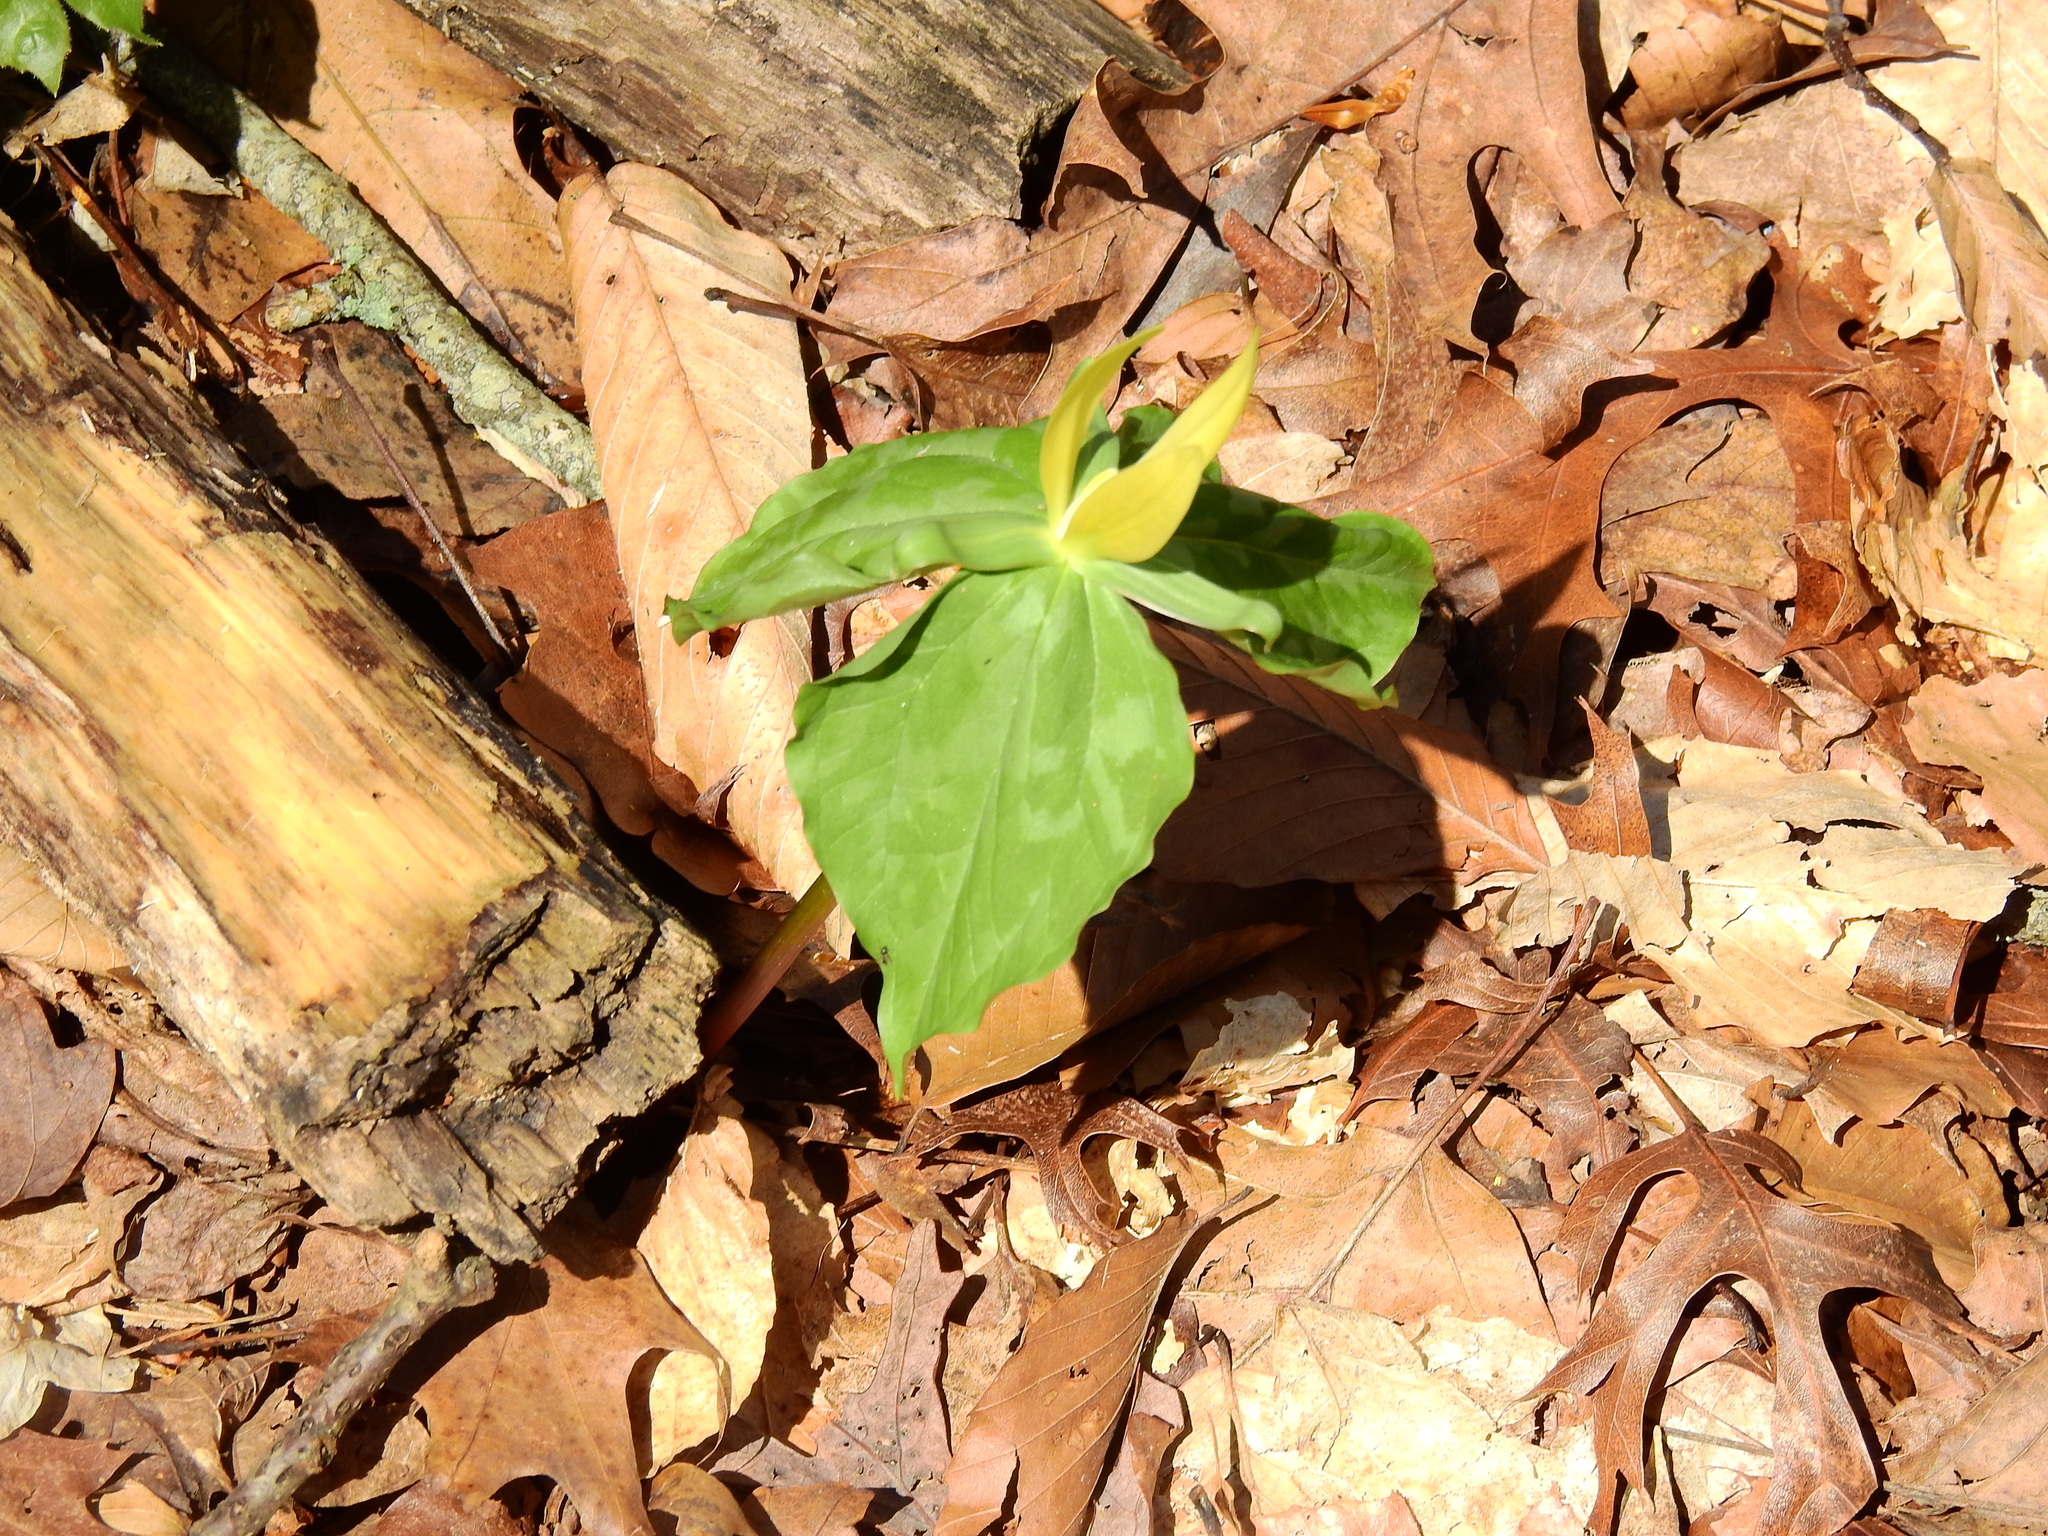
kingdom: Plantae
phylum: Tracheophyta
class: Liliopsida
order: Liliales
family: Melanthiaceae
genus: Trillium
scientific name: Trillium luteum
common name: Wax trillium
